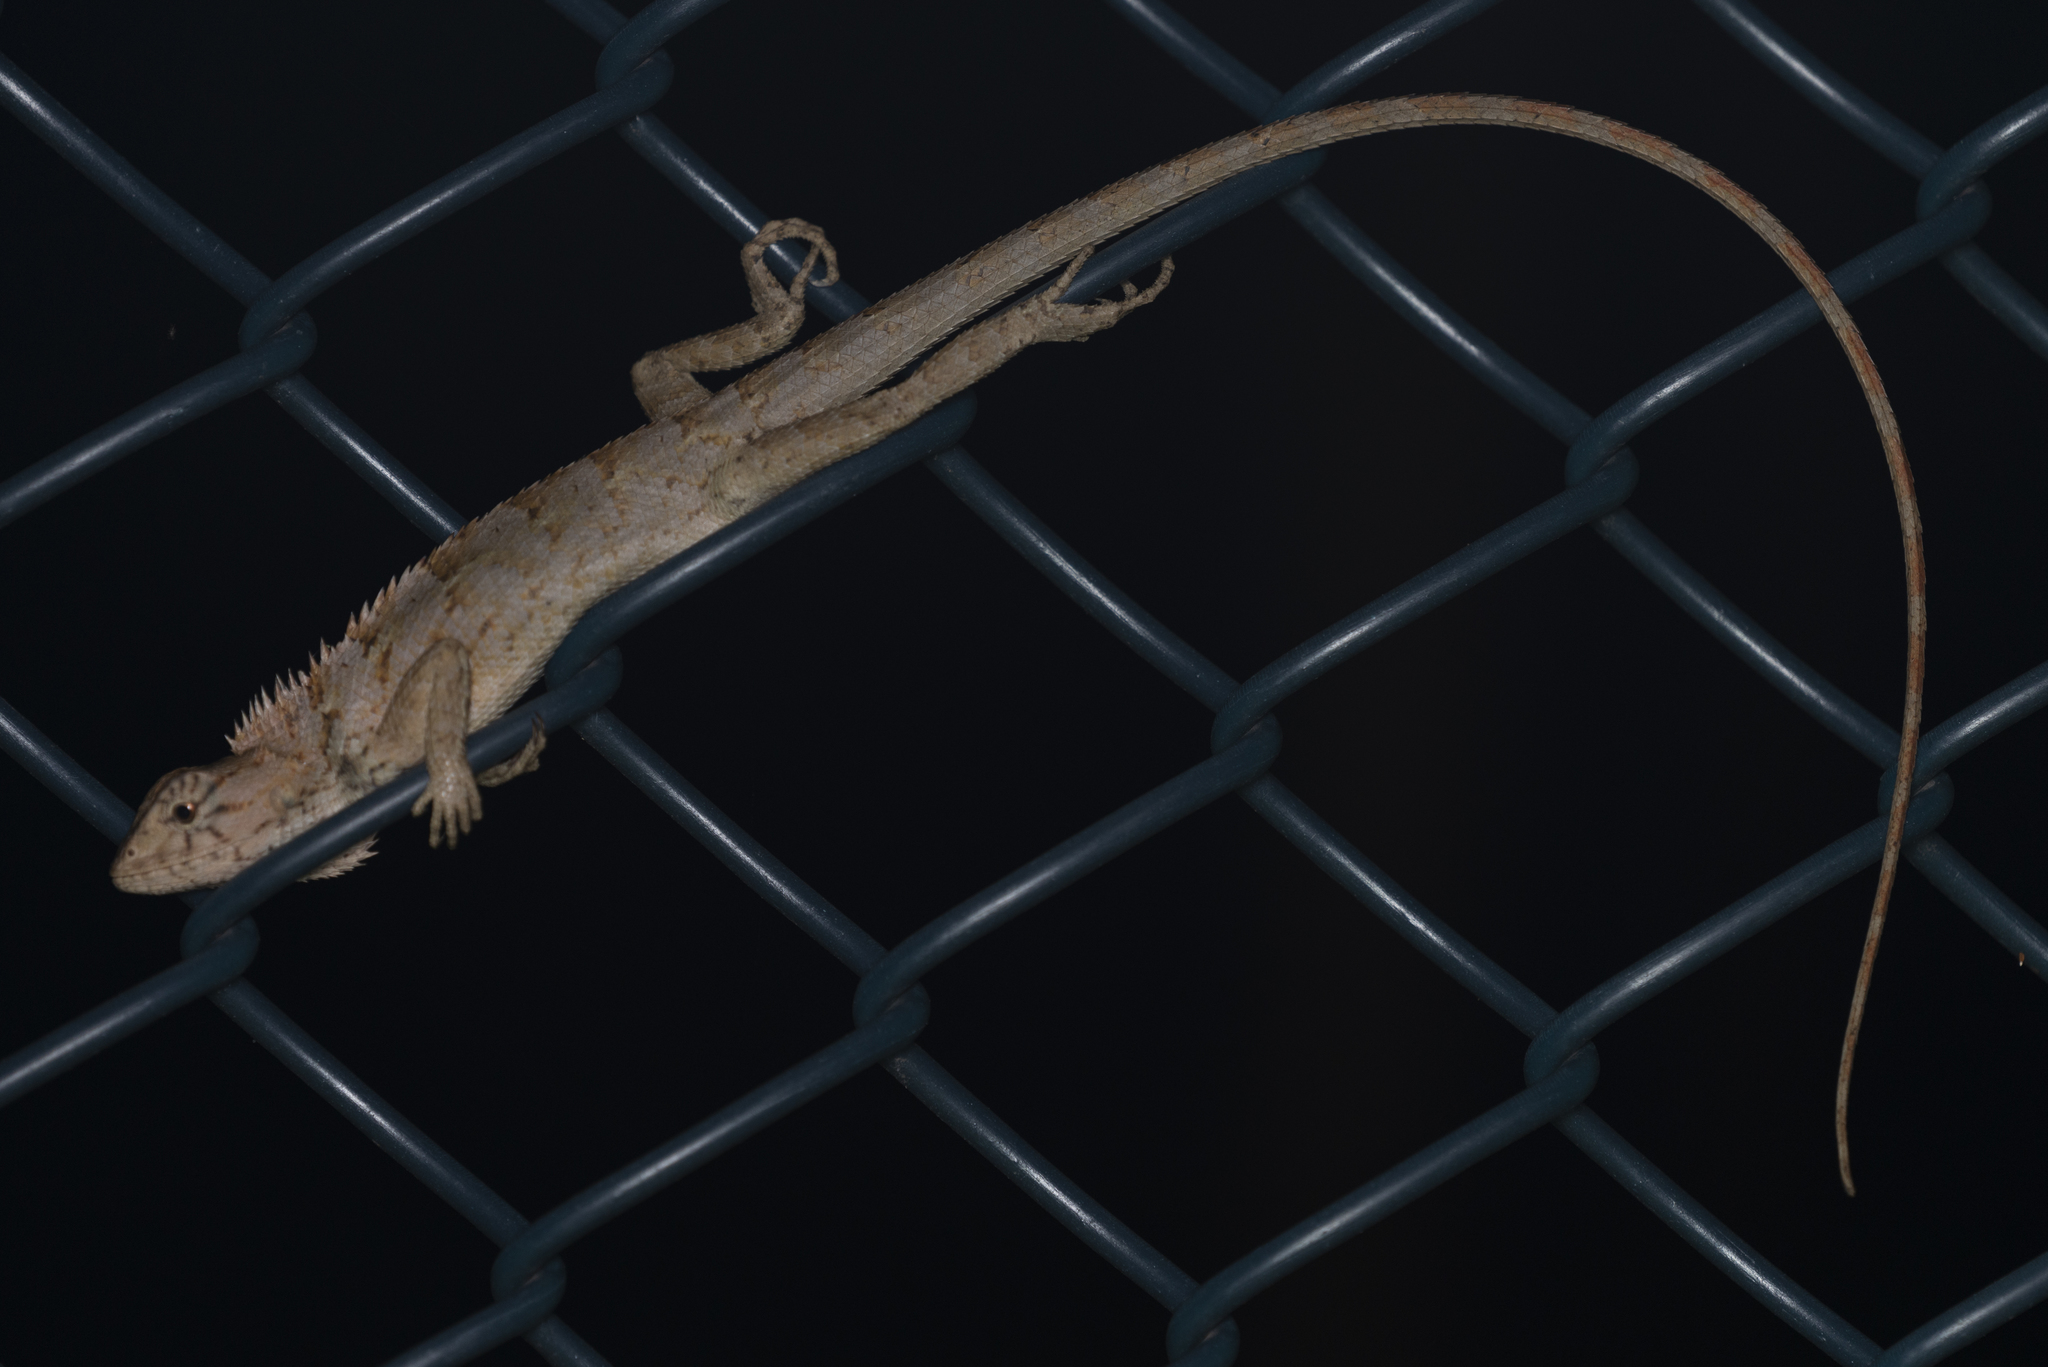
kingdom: Animalia
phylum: Chordata
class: Squamata
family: Agamidae
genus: Calotes
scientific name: Calotes versicolor
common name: Oriental garden lizard
